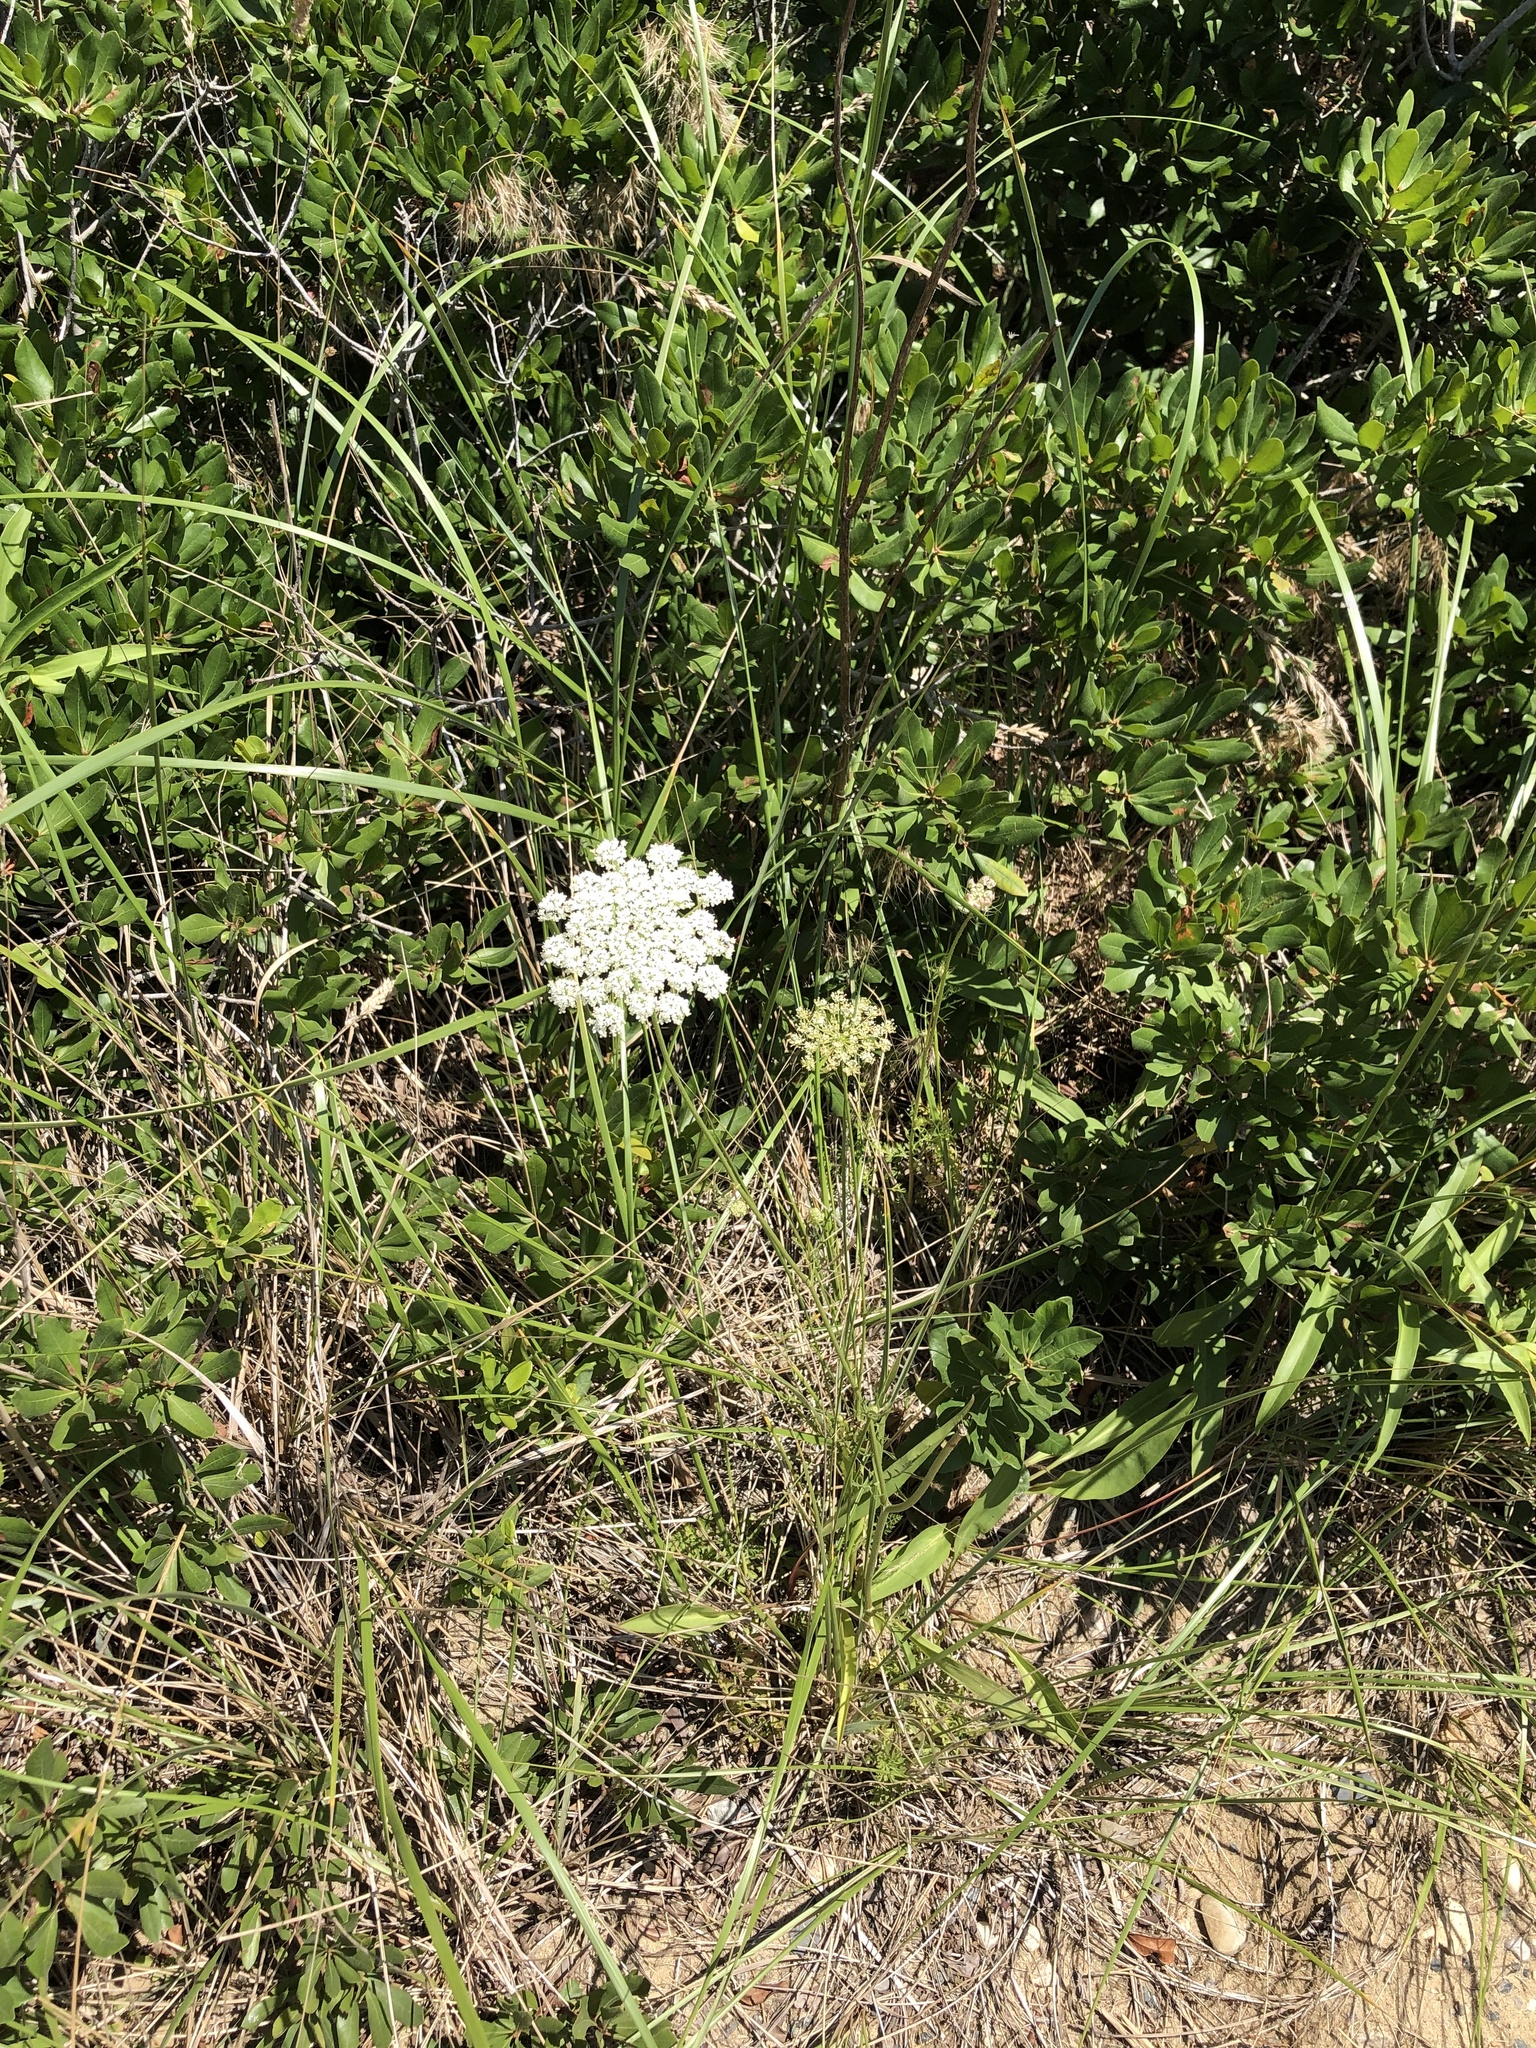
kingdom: Plantae
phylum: Tracheophyta
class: Magnoliopsida
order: Apiales
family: Apiaceae
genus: Daucus
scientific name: Daucus carota
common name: Wild carrot
